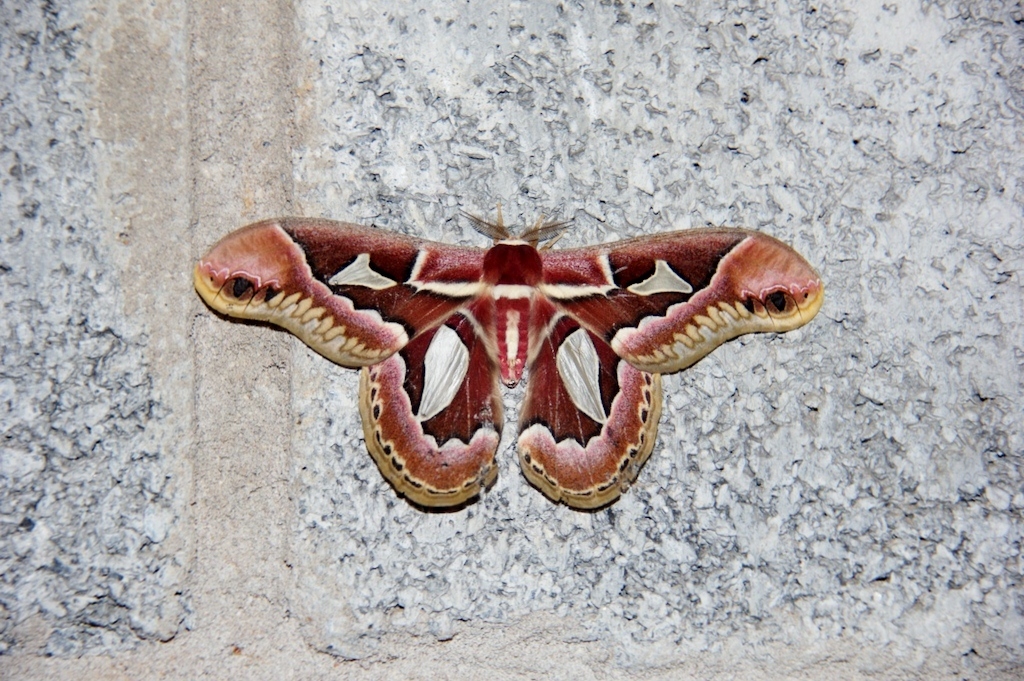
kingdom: Animalia
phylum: Arthropoda
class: Insecta
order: Lepidoptera
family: Saturniidae
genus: Rothschildia
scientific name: Rothschildia jacobaeae
